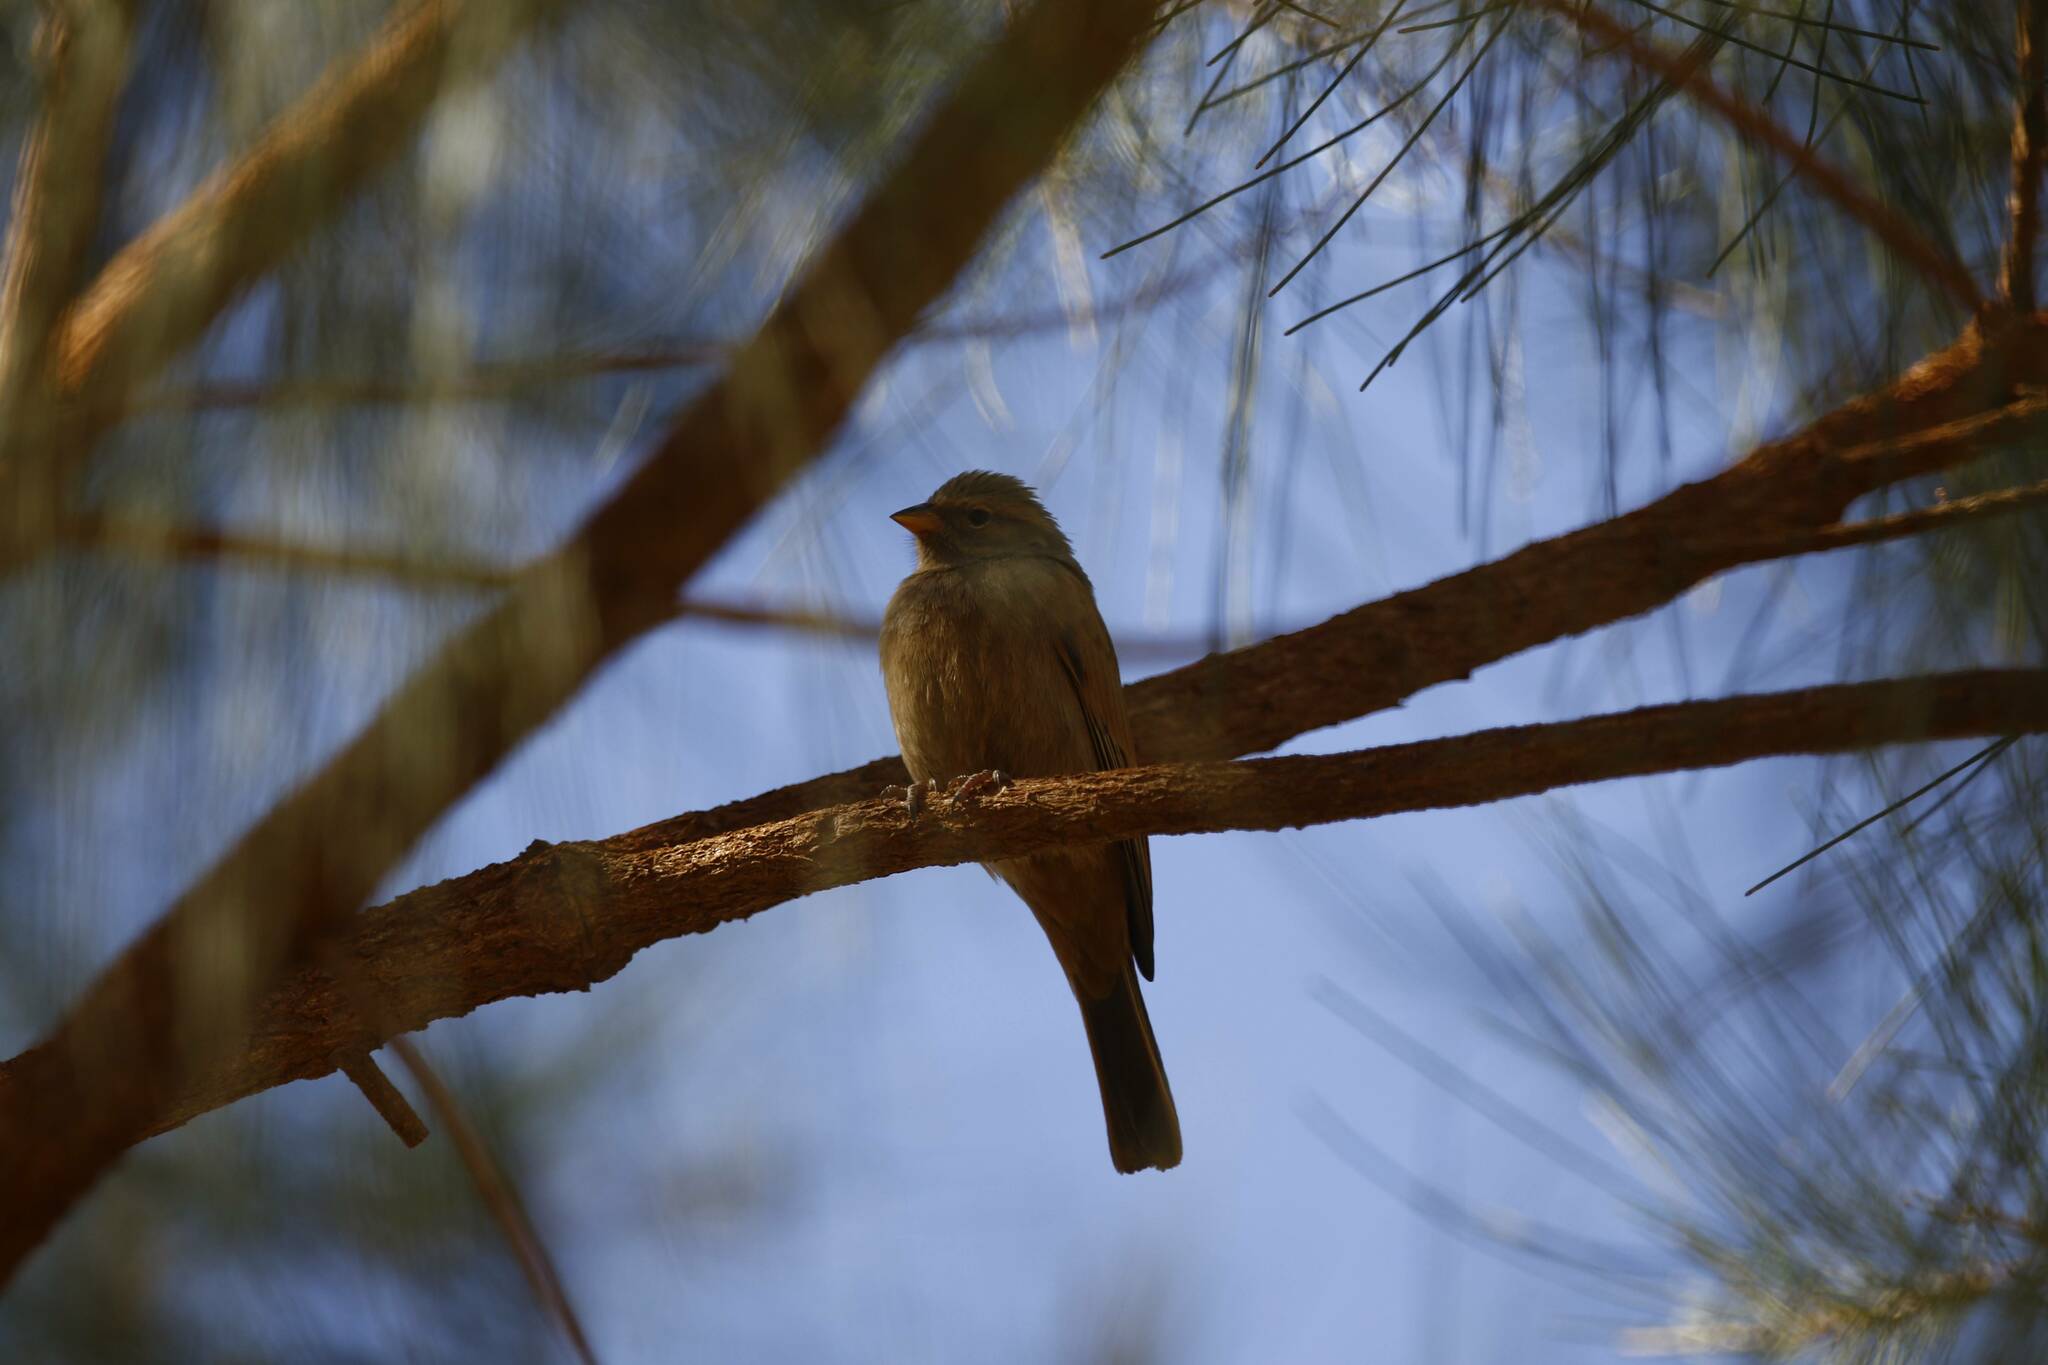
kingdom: Animalia
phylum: Chordata
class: Aves
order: Passeriformes
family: Emberizidae
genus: Emberiza
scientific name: Emberiza sahari
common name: House bunting
